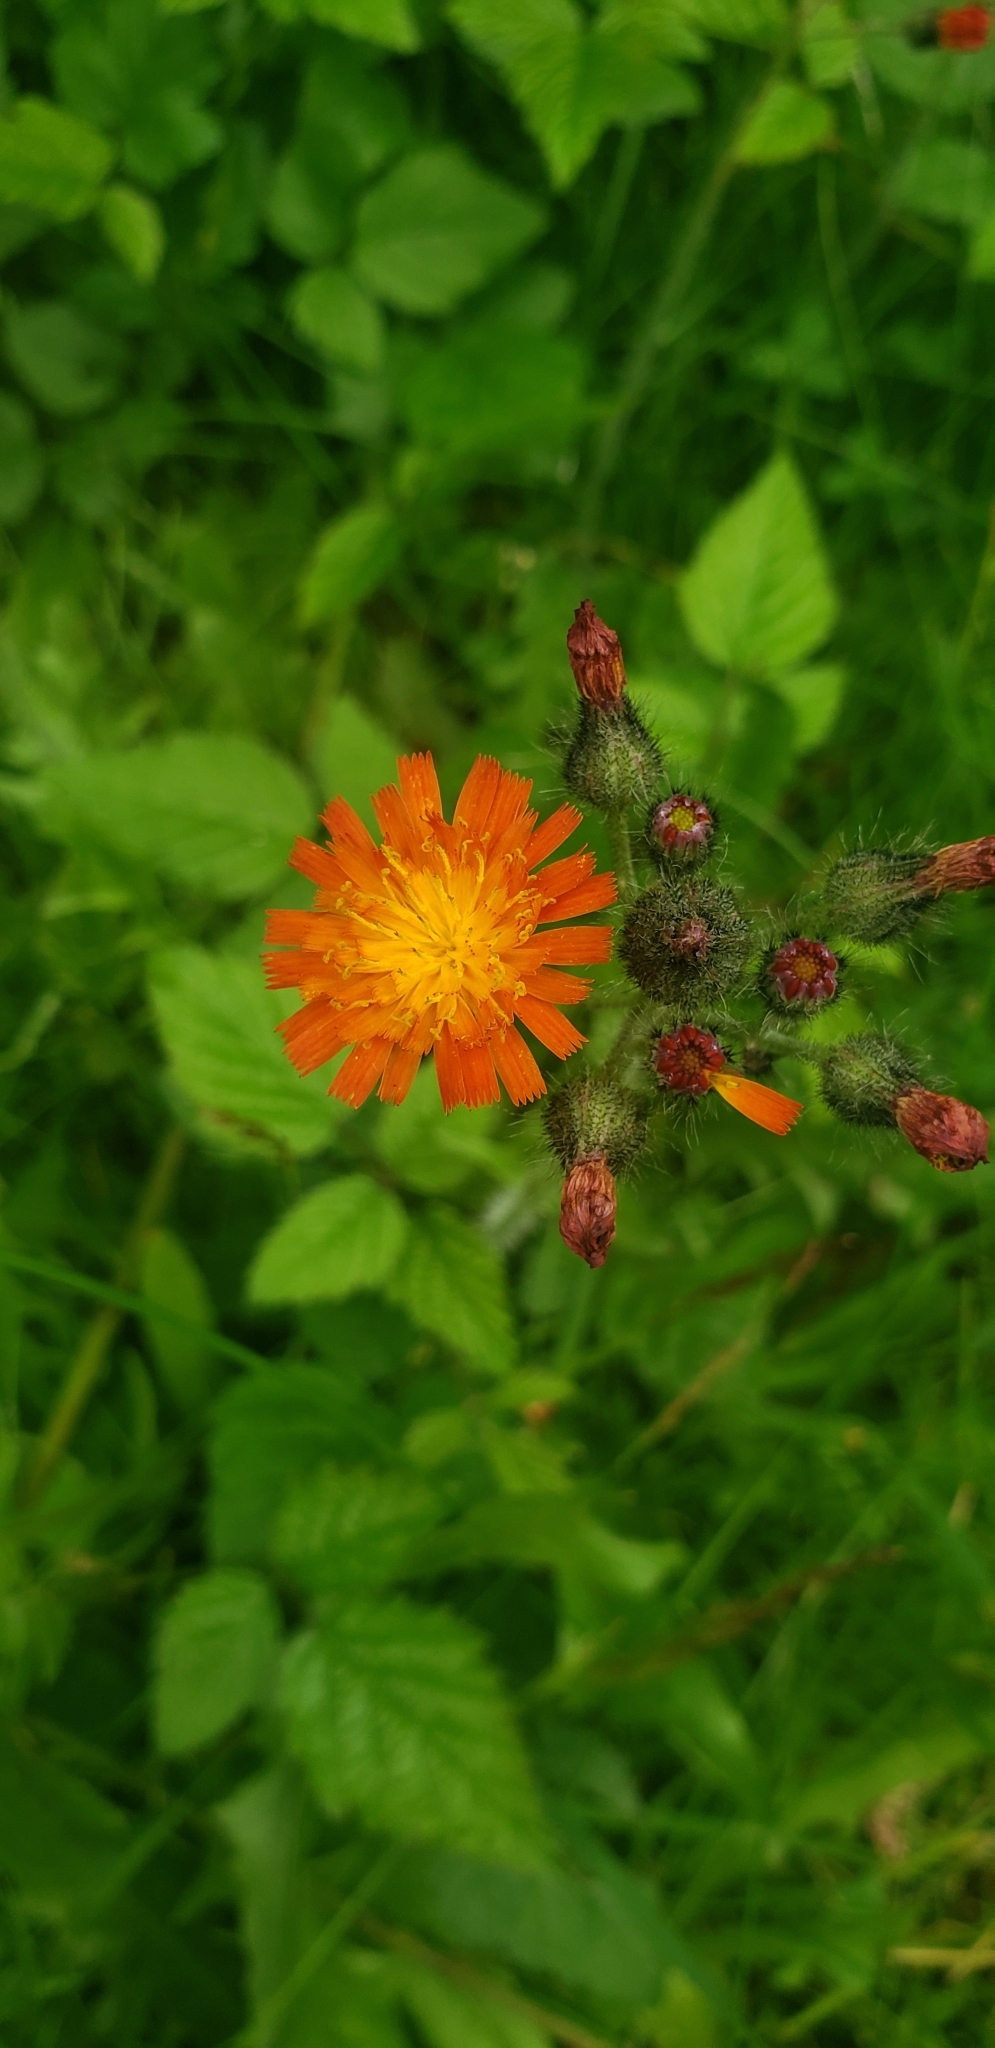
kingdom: Plantae
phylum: Tracheophyta
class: Magnoliopsida
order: Asterales
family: Asteraceae
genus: Pilosella
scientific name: Pilosella aurantiaca
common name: Fox-and-cubs
